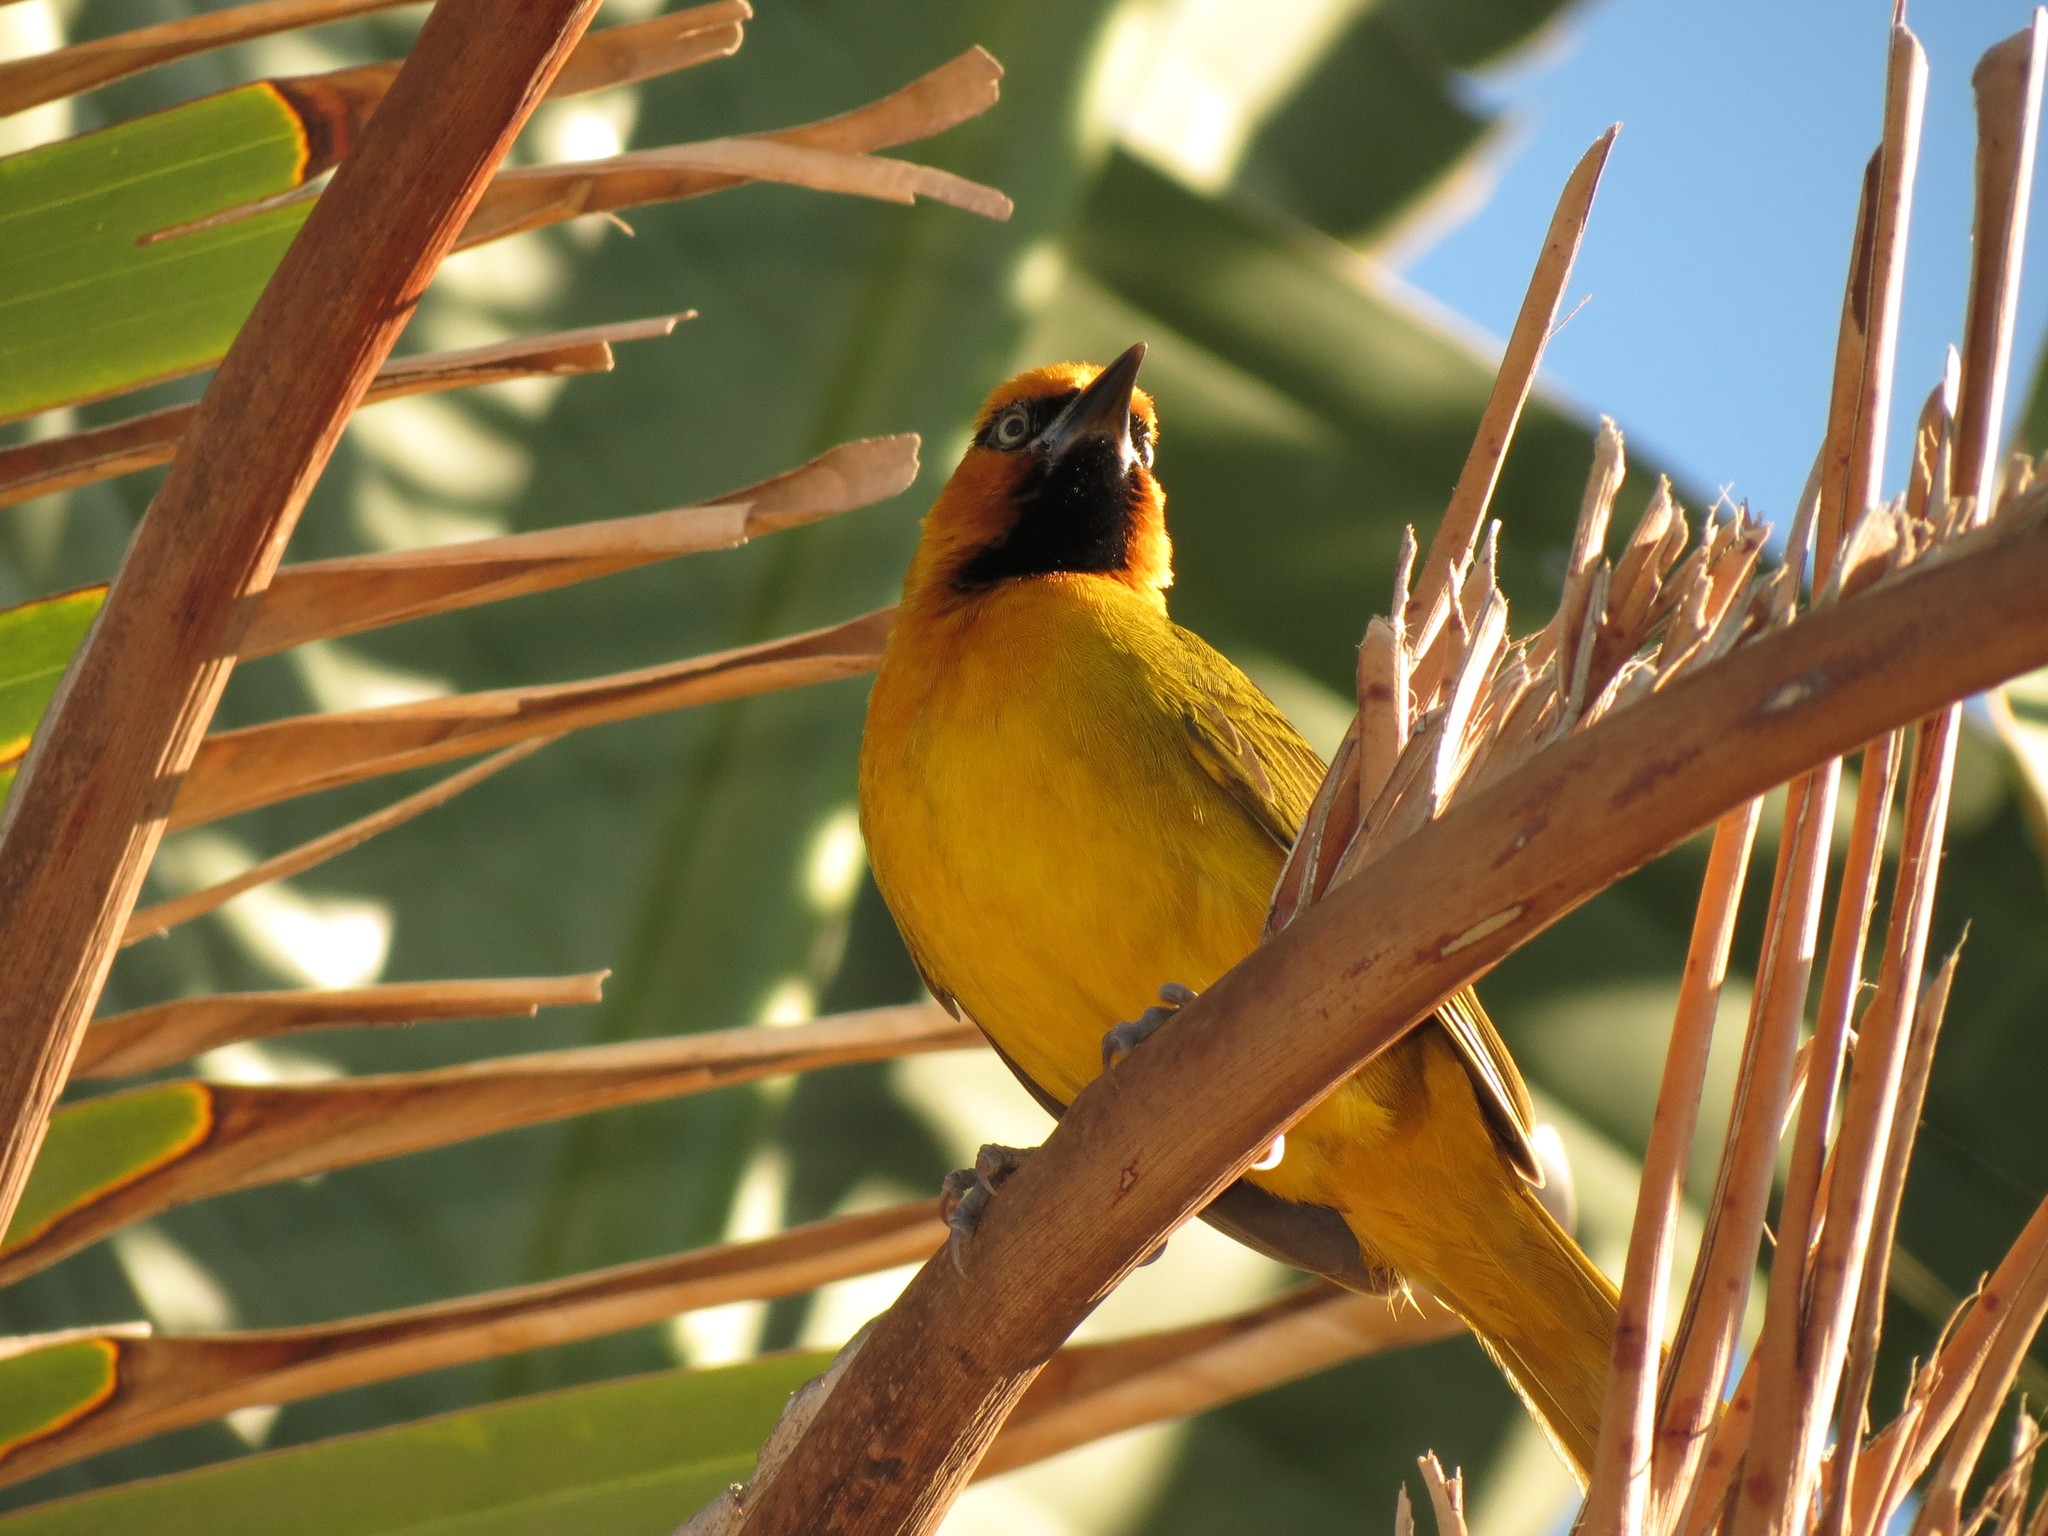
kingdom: Animalia
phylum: Chordata
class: Aves
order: Passeriformes
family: Ploceidae
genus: Ploceus
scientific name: Ploceus ocularis
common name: Spectacled weaver
